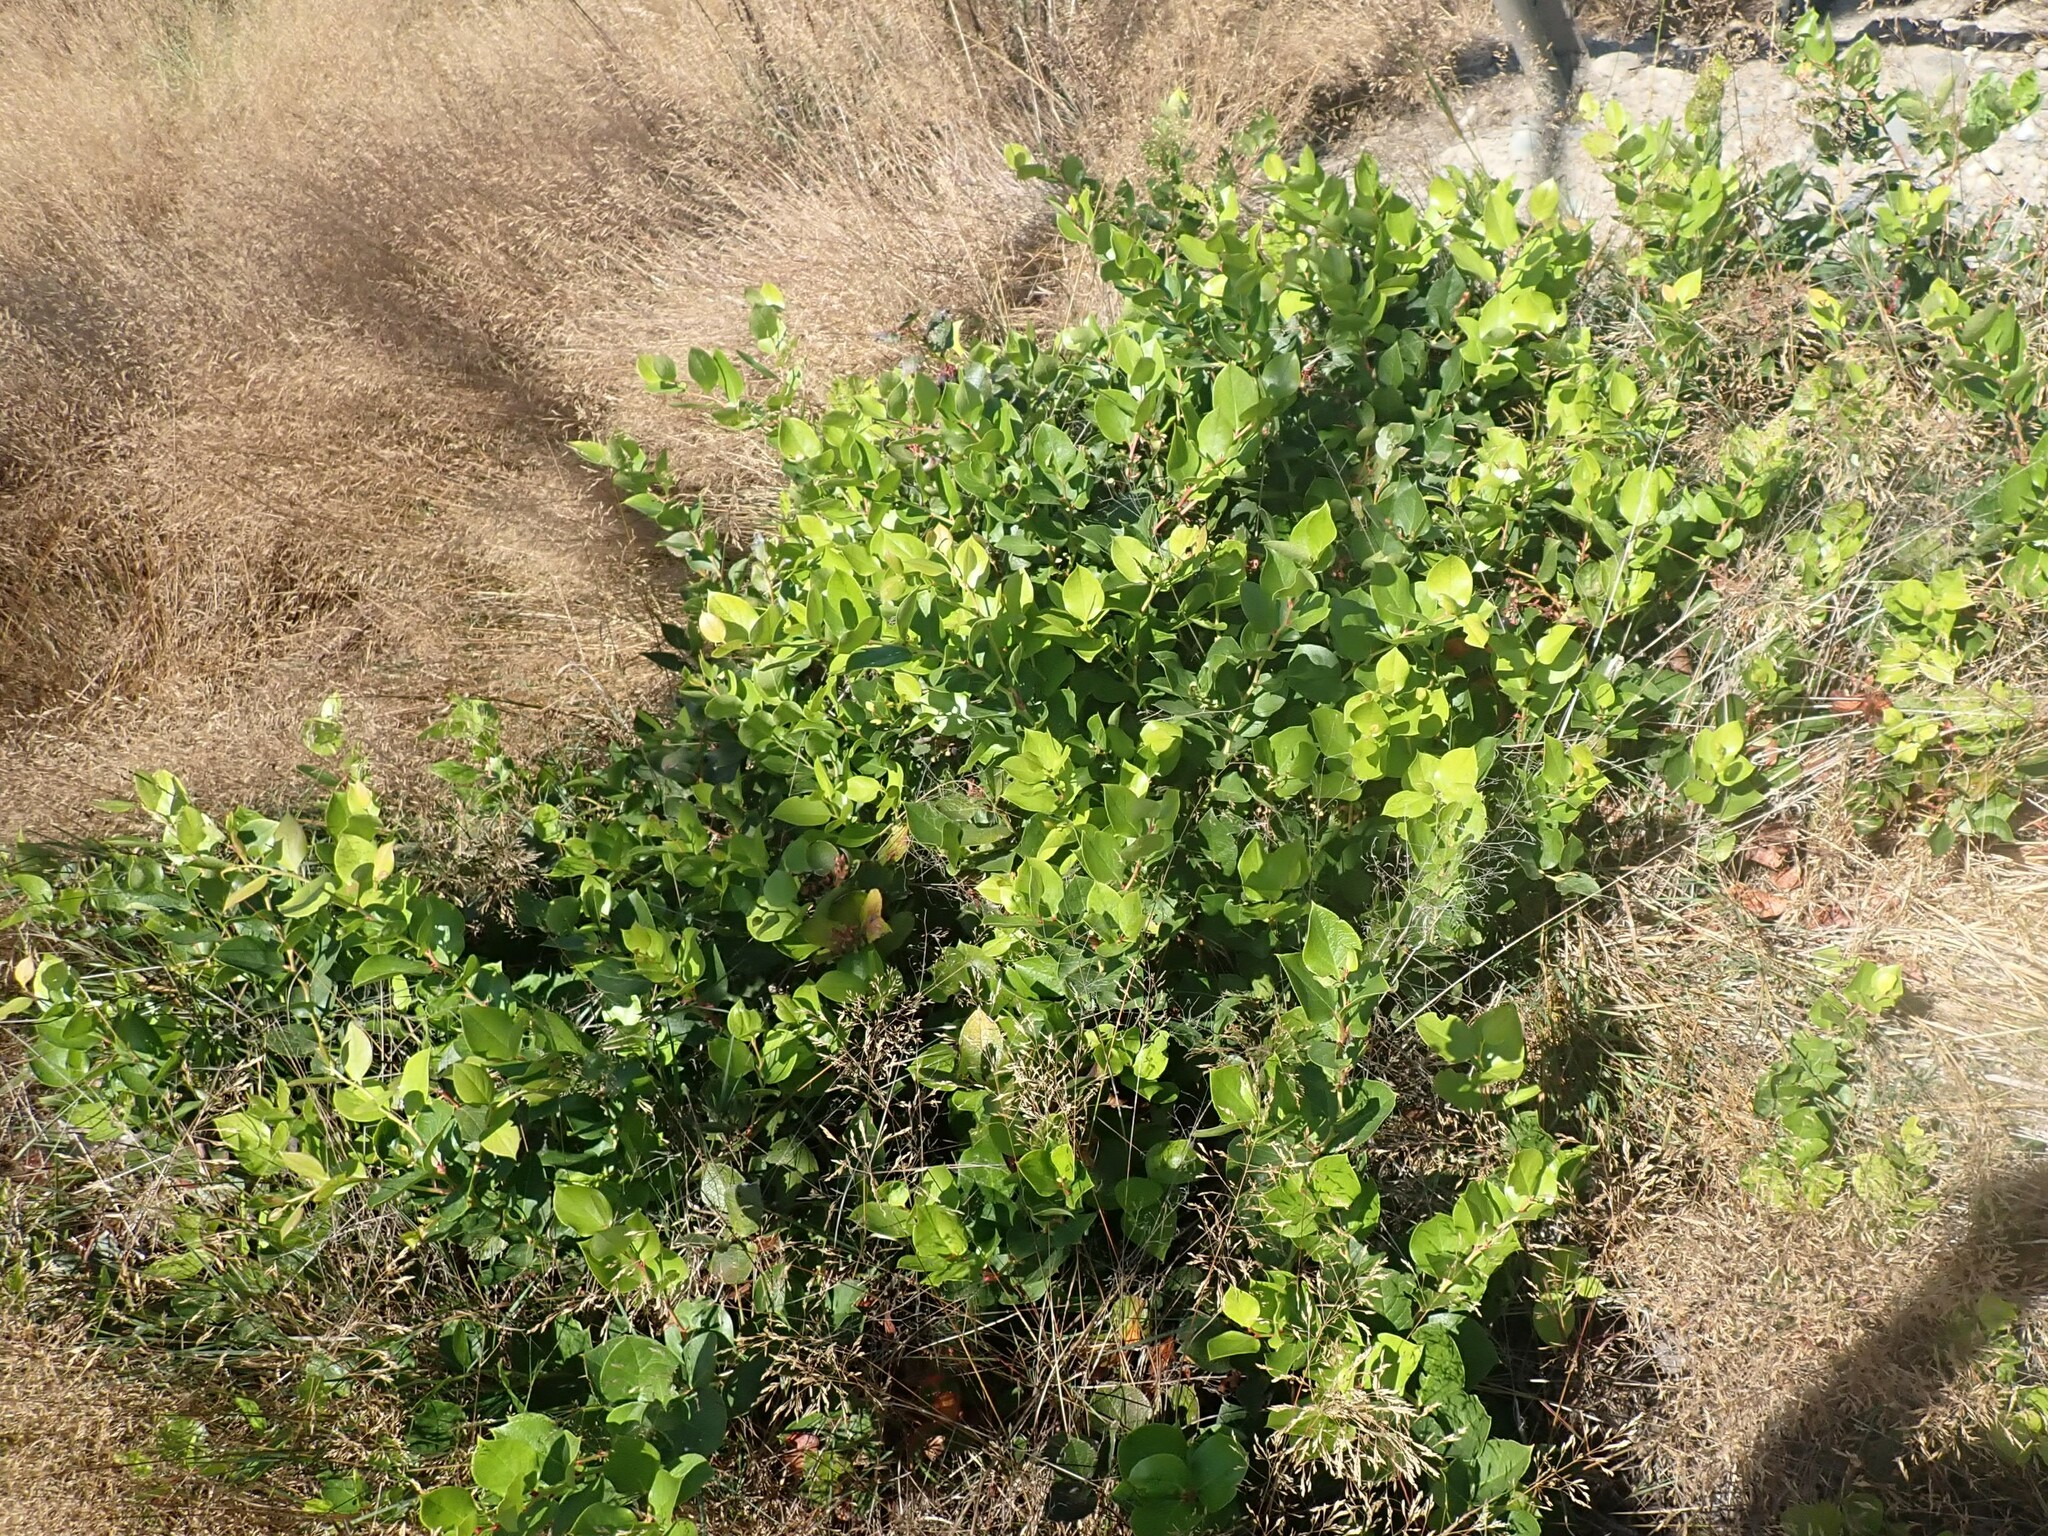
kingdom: Plantae
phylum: Tracheophyta
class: Magnoliopsida
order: Ericales
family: Ericaceae
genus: Gaultheria
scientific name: Gaultheria shallon
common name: Shallon
